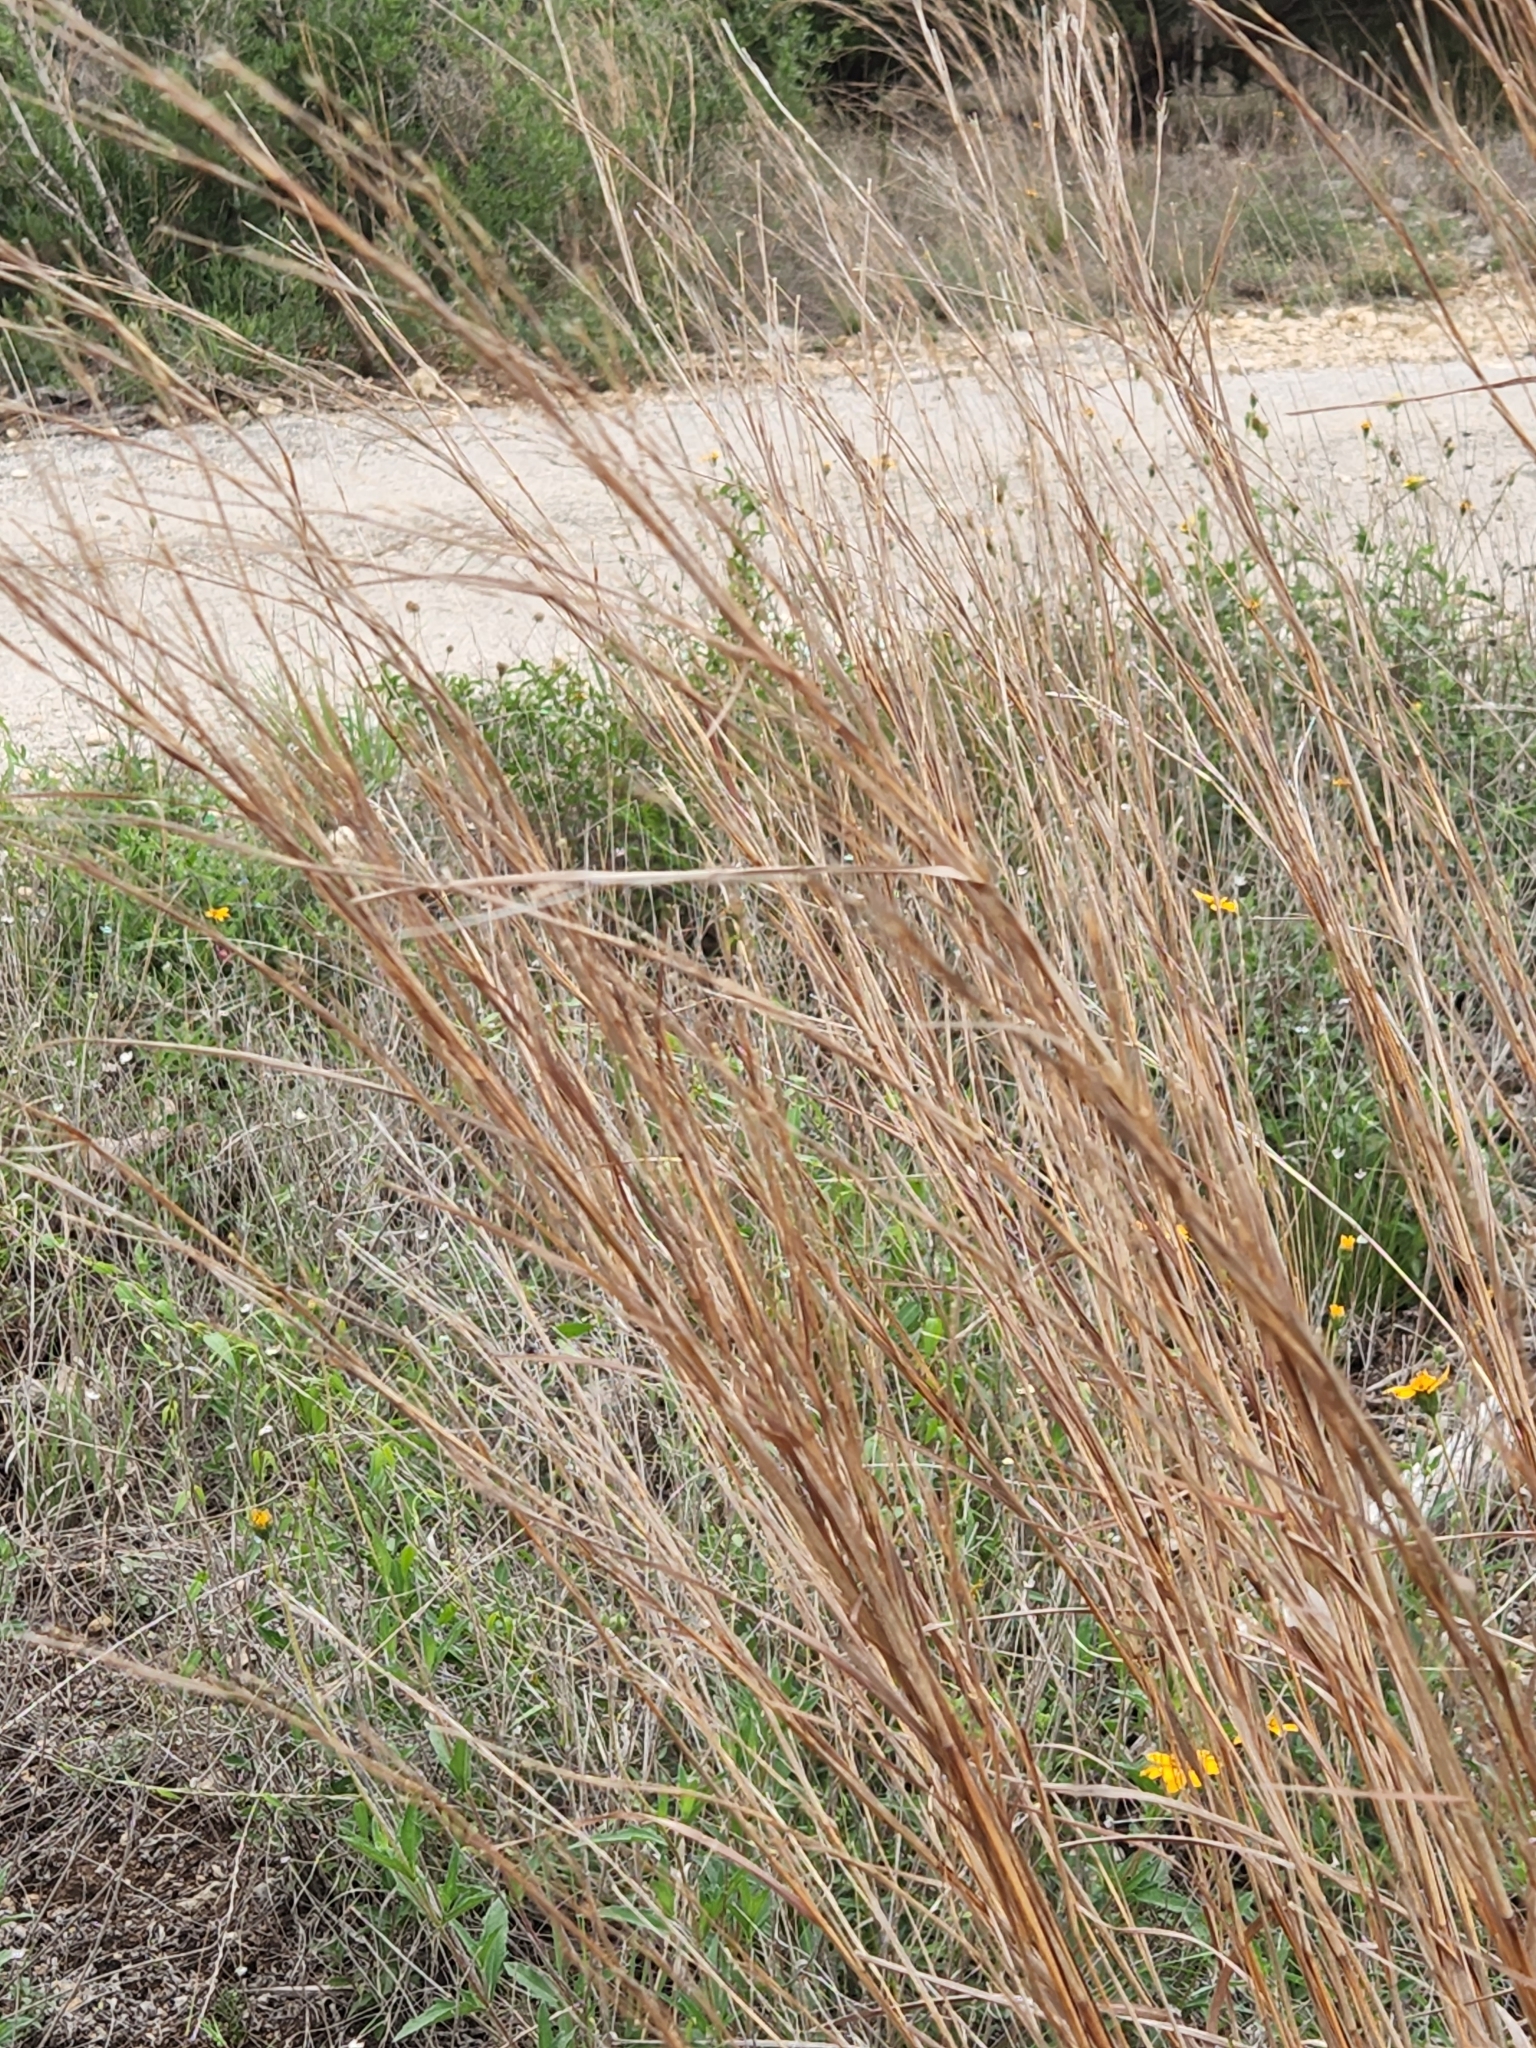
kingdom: Plantae
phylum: Tracheophyta
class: Liliopsida
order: Poales
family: Poaceae
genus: Schizachyrium
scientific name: Schizachyrium scoparium
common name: Little bluestem
